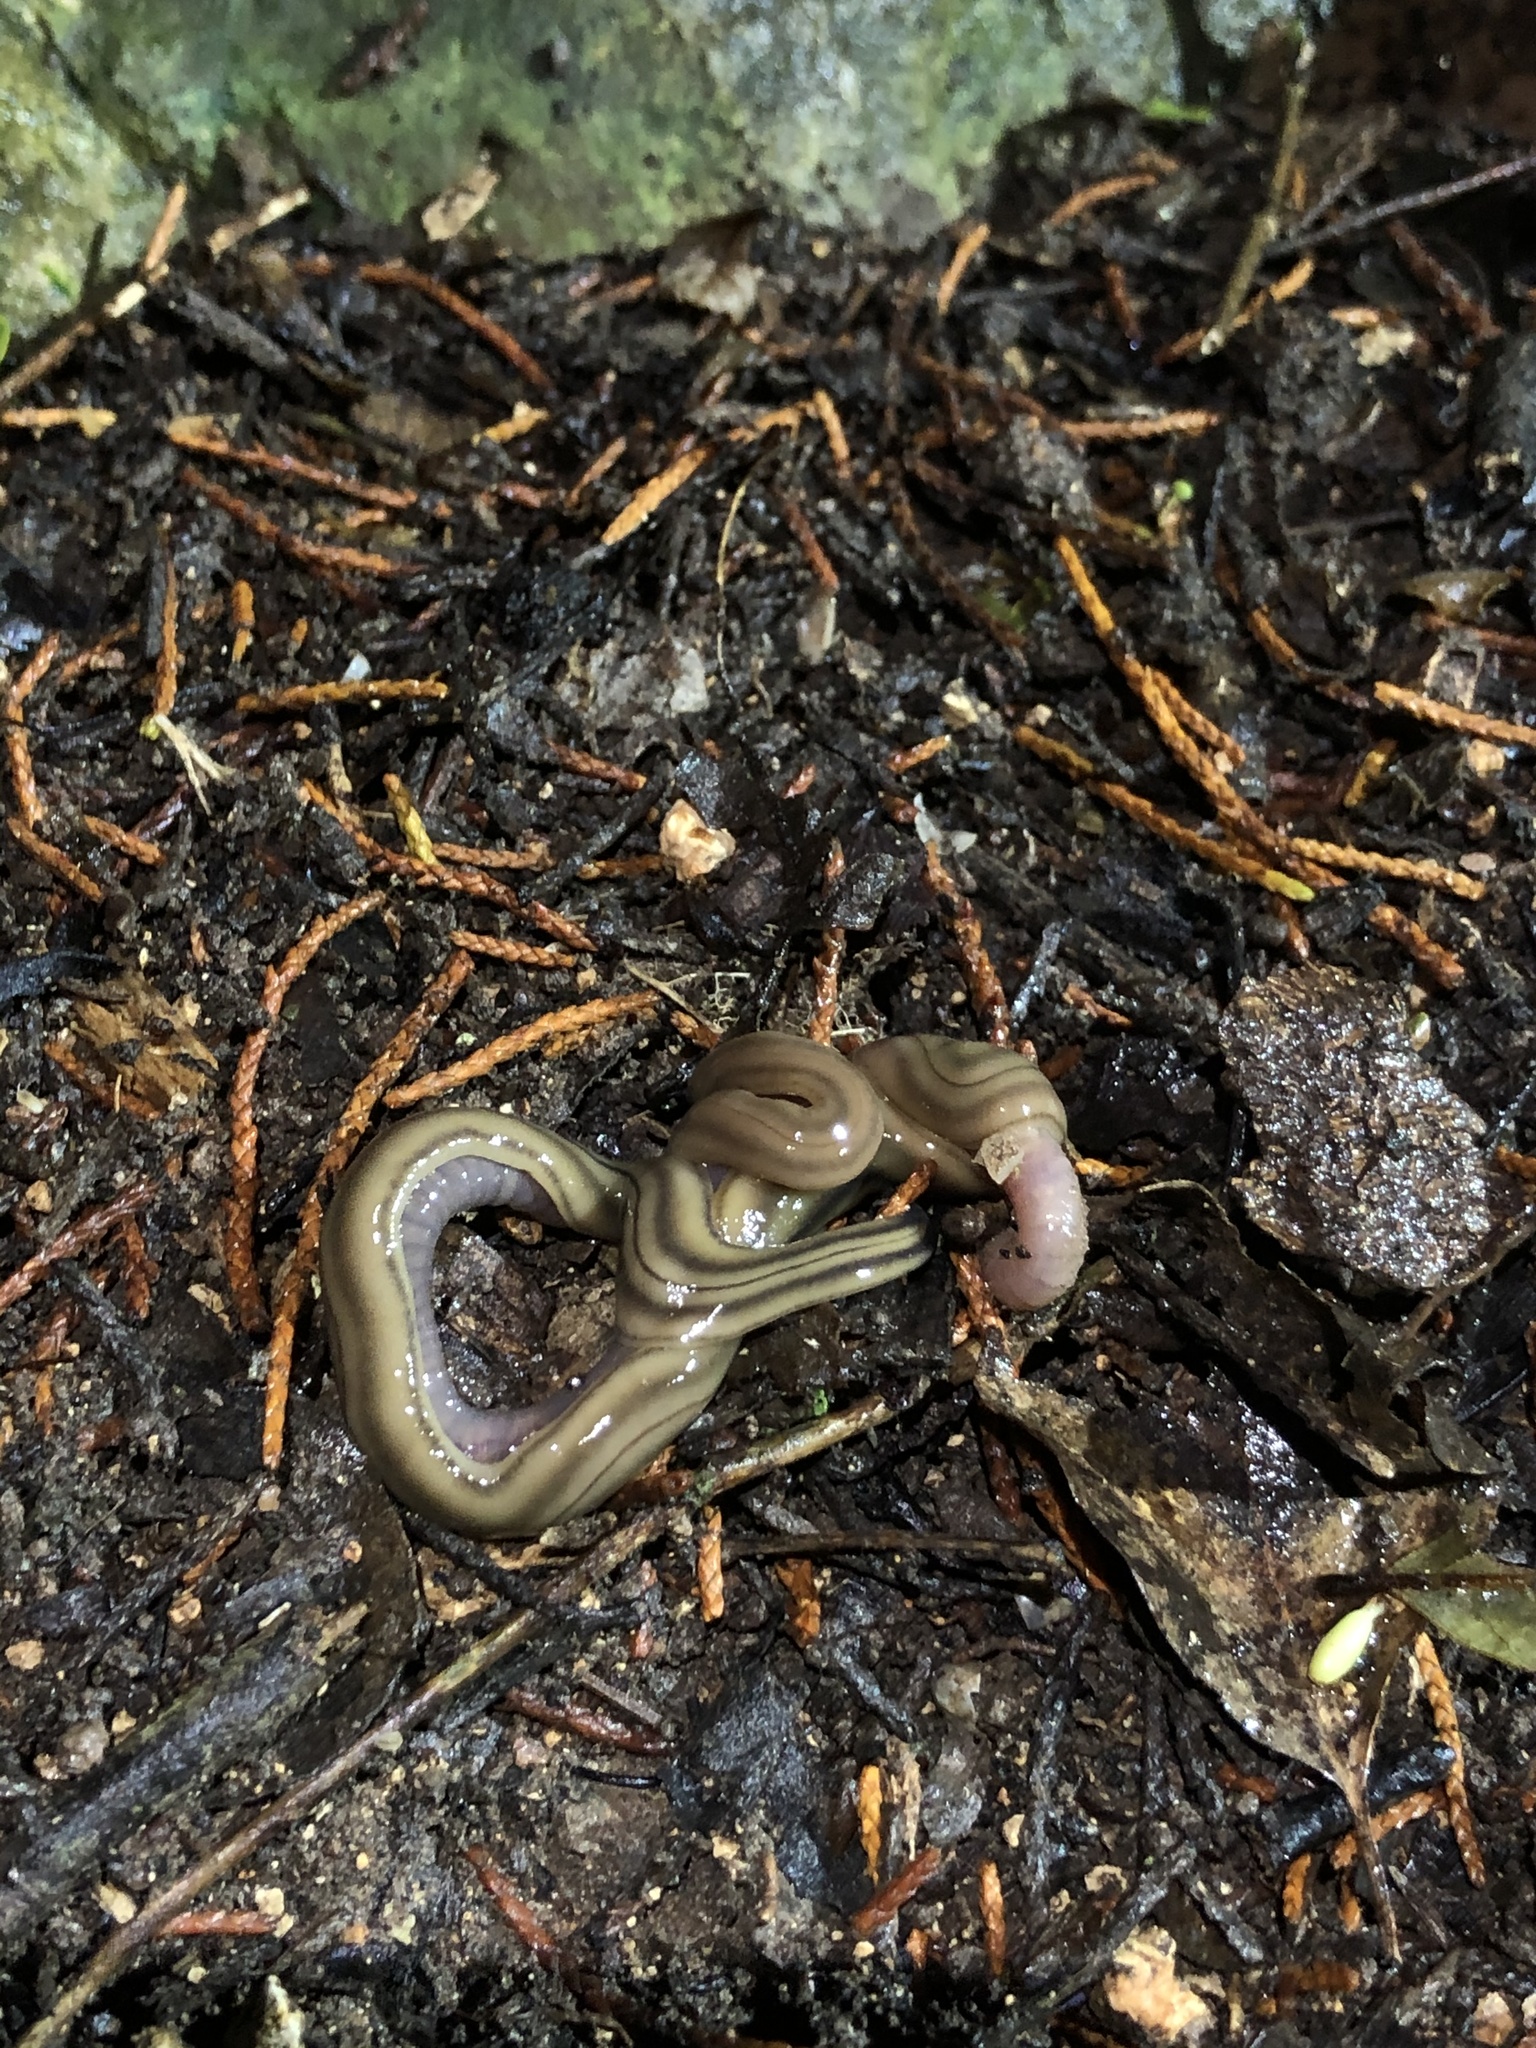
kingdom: Animalia
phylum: Platyhelminthes
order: Tricladida
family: Geoplanidae
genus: Bipalium
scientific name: Bipalium kewense
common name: Hammerhead flatworm
